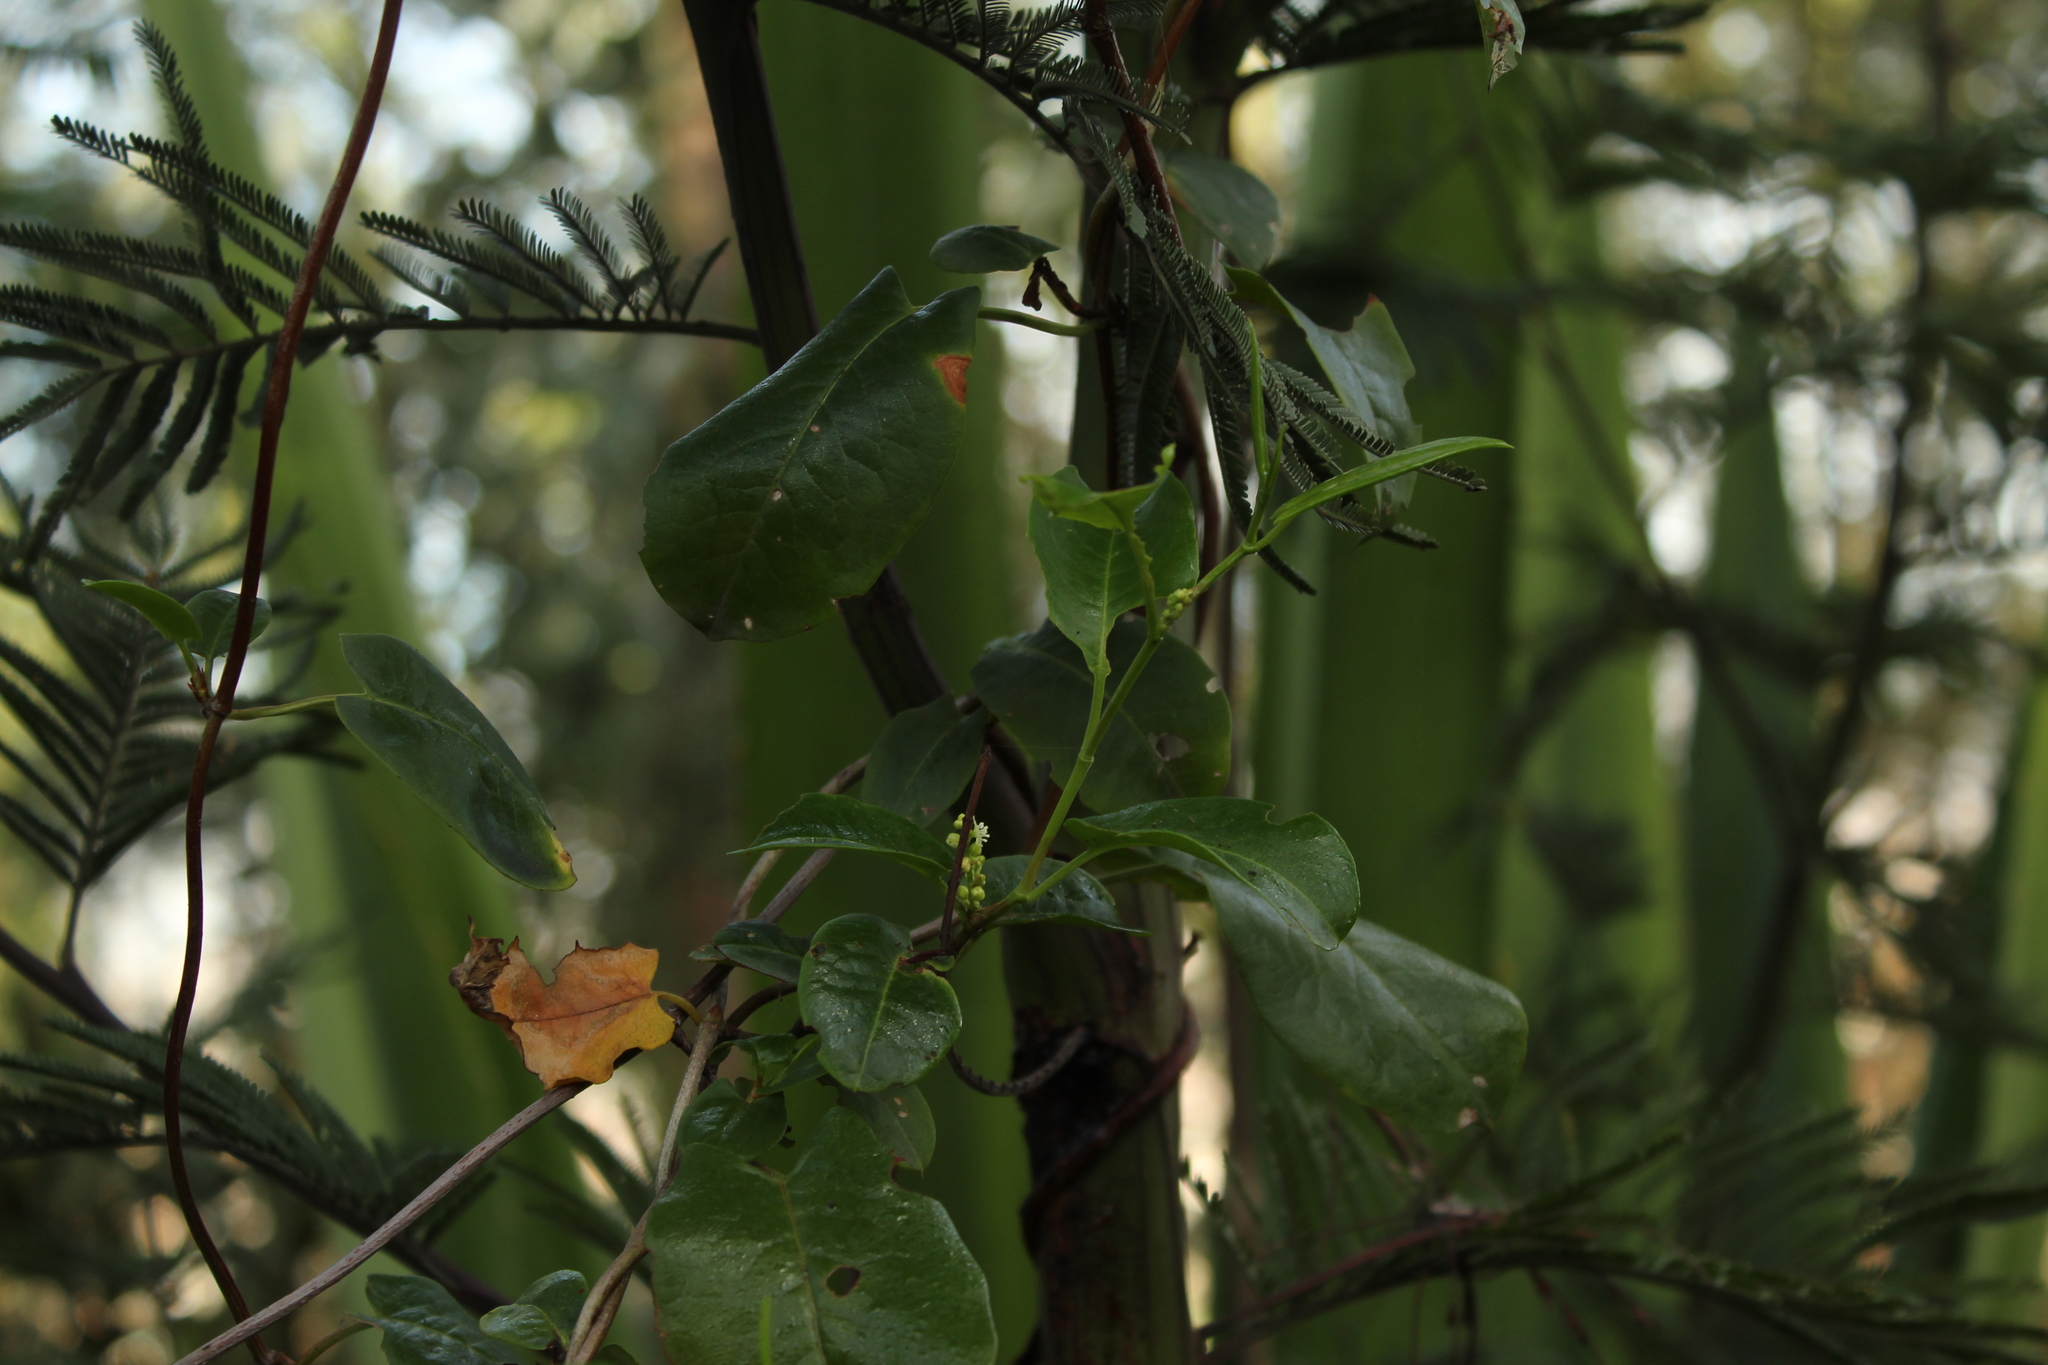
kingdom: Plantae
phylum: Tracheophyta
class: Magnoliopsida
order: Caryophyllales
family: Polygonaceae
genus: Muehlenbeckia
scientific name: Muehlenbeckia tamnifolia
